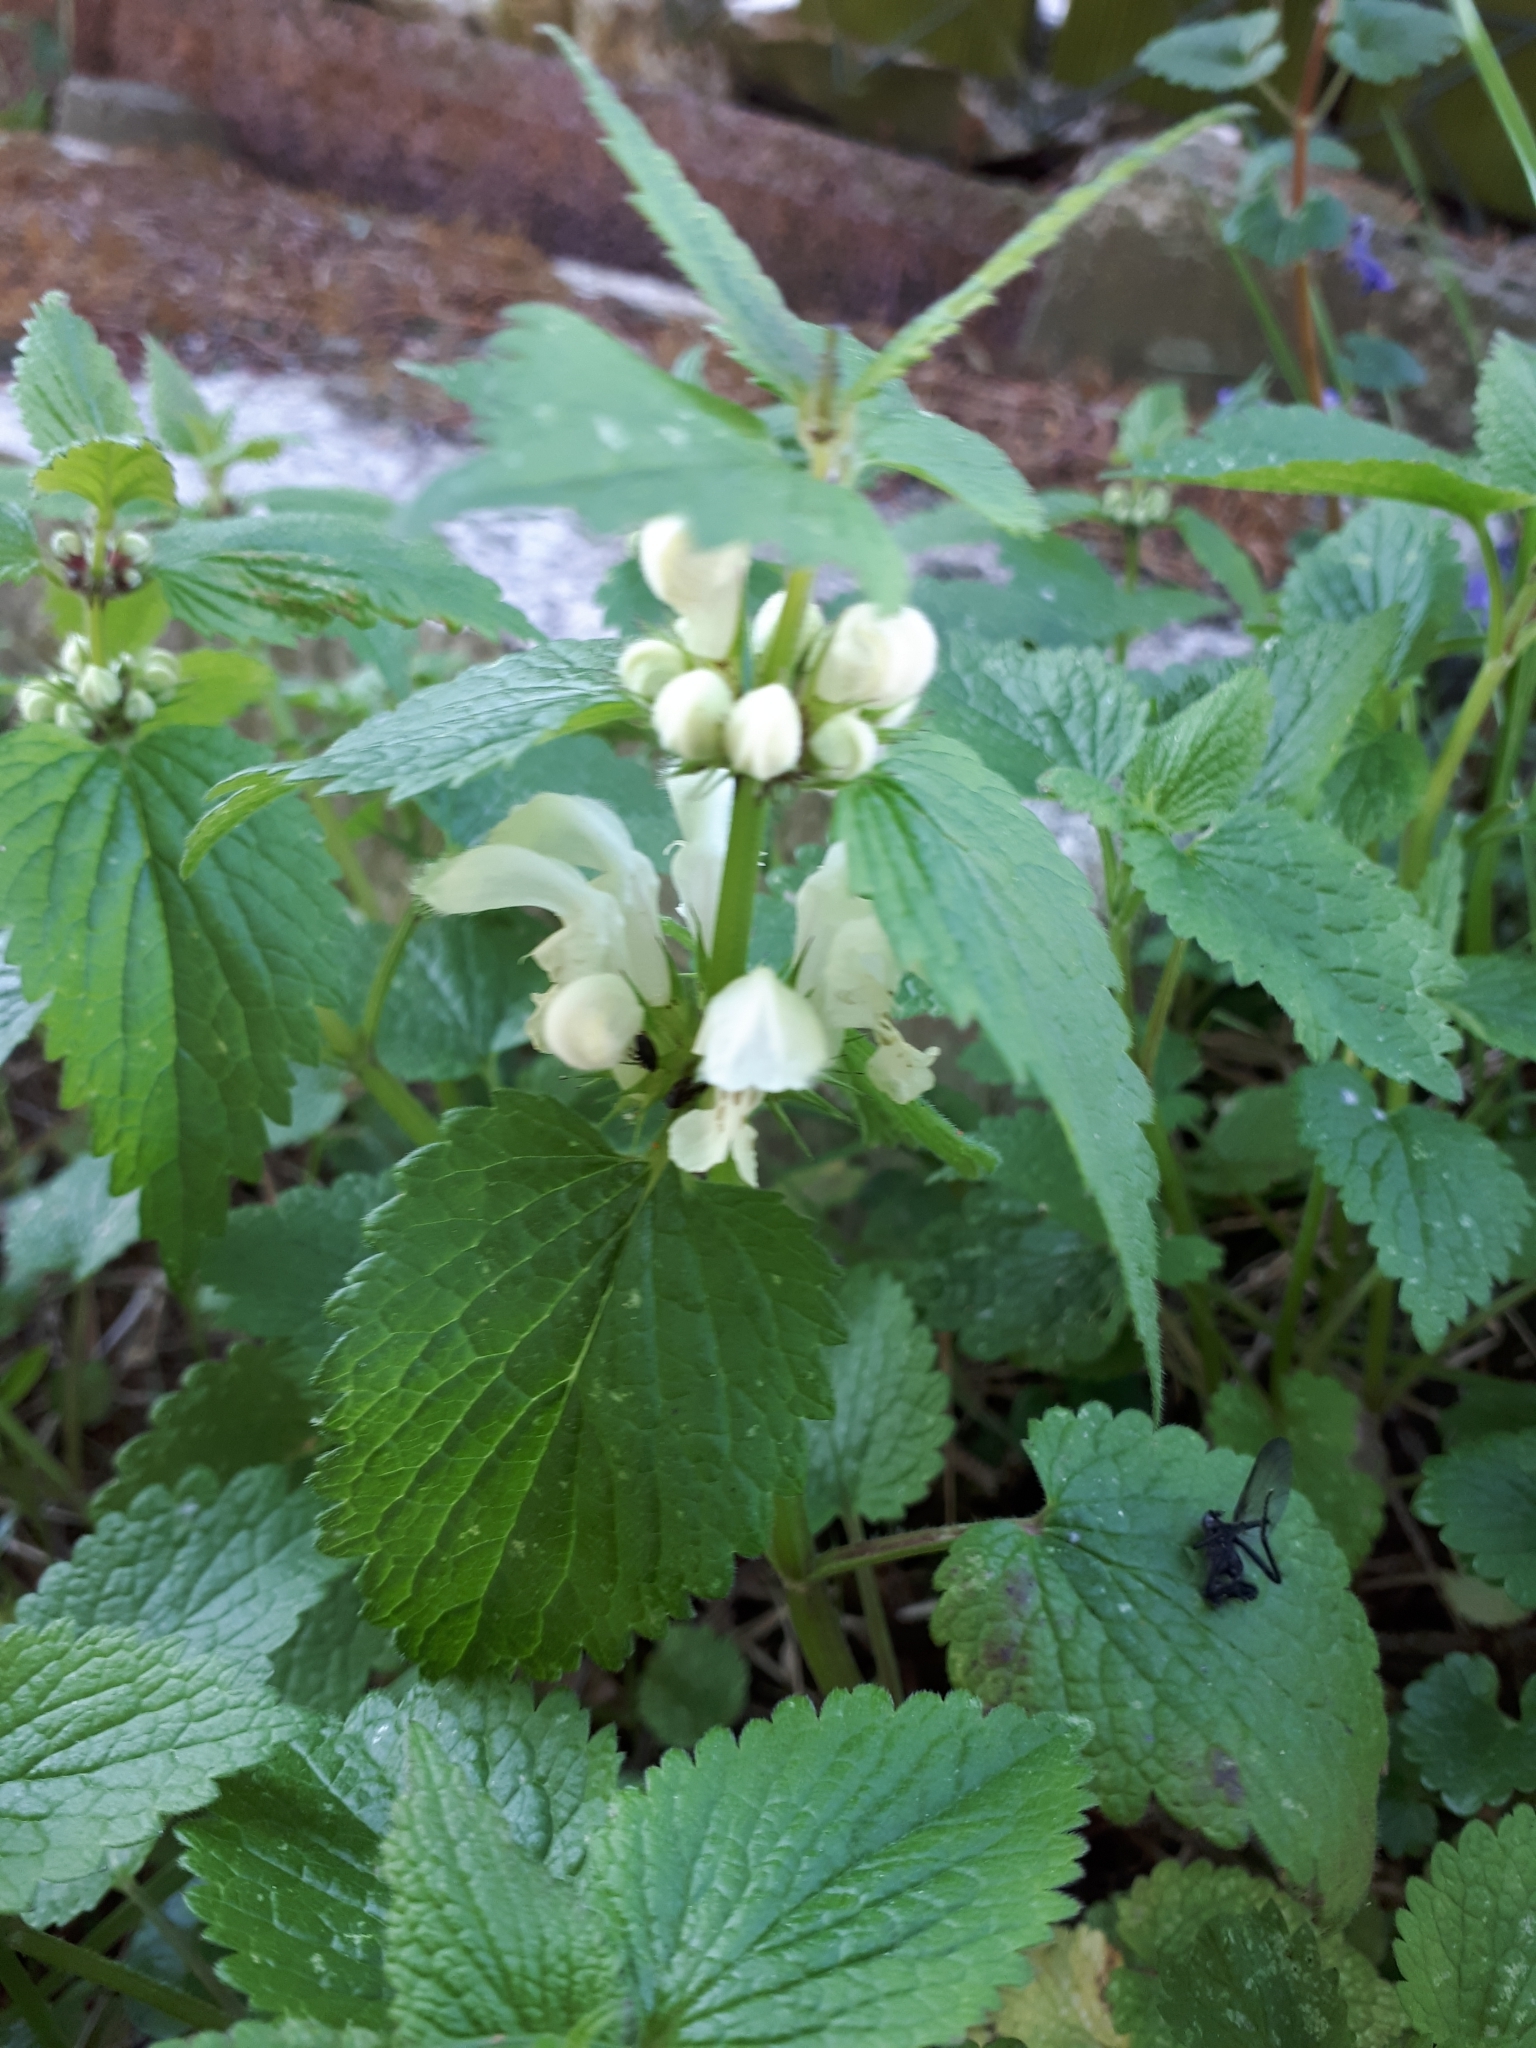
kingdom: Plantae
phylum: Tracheophyta
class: Magnoliopsida
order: Lamiales
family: Lamiaceae
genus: Lamium
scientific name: Lamium album
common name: White dead-nettle
